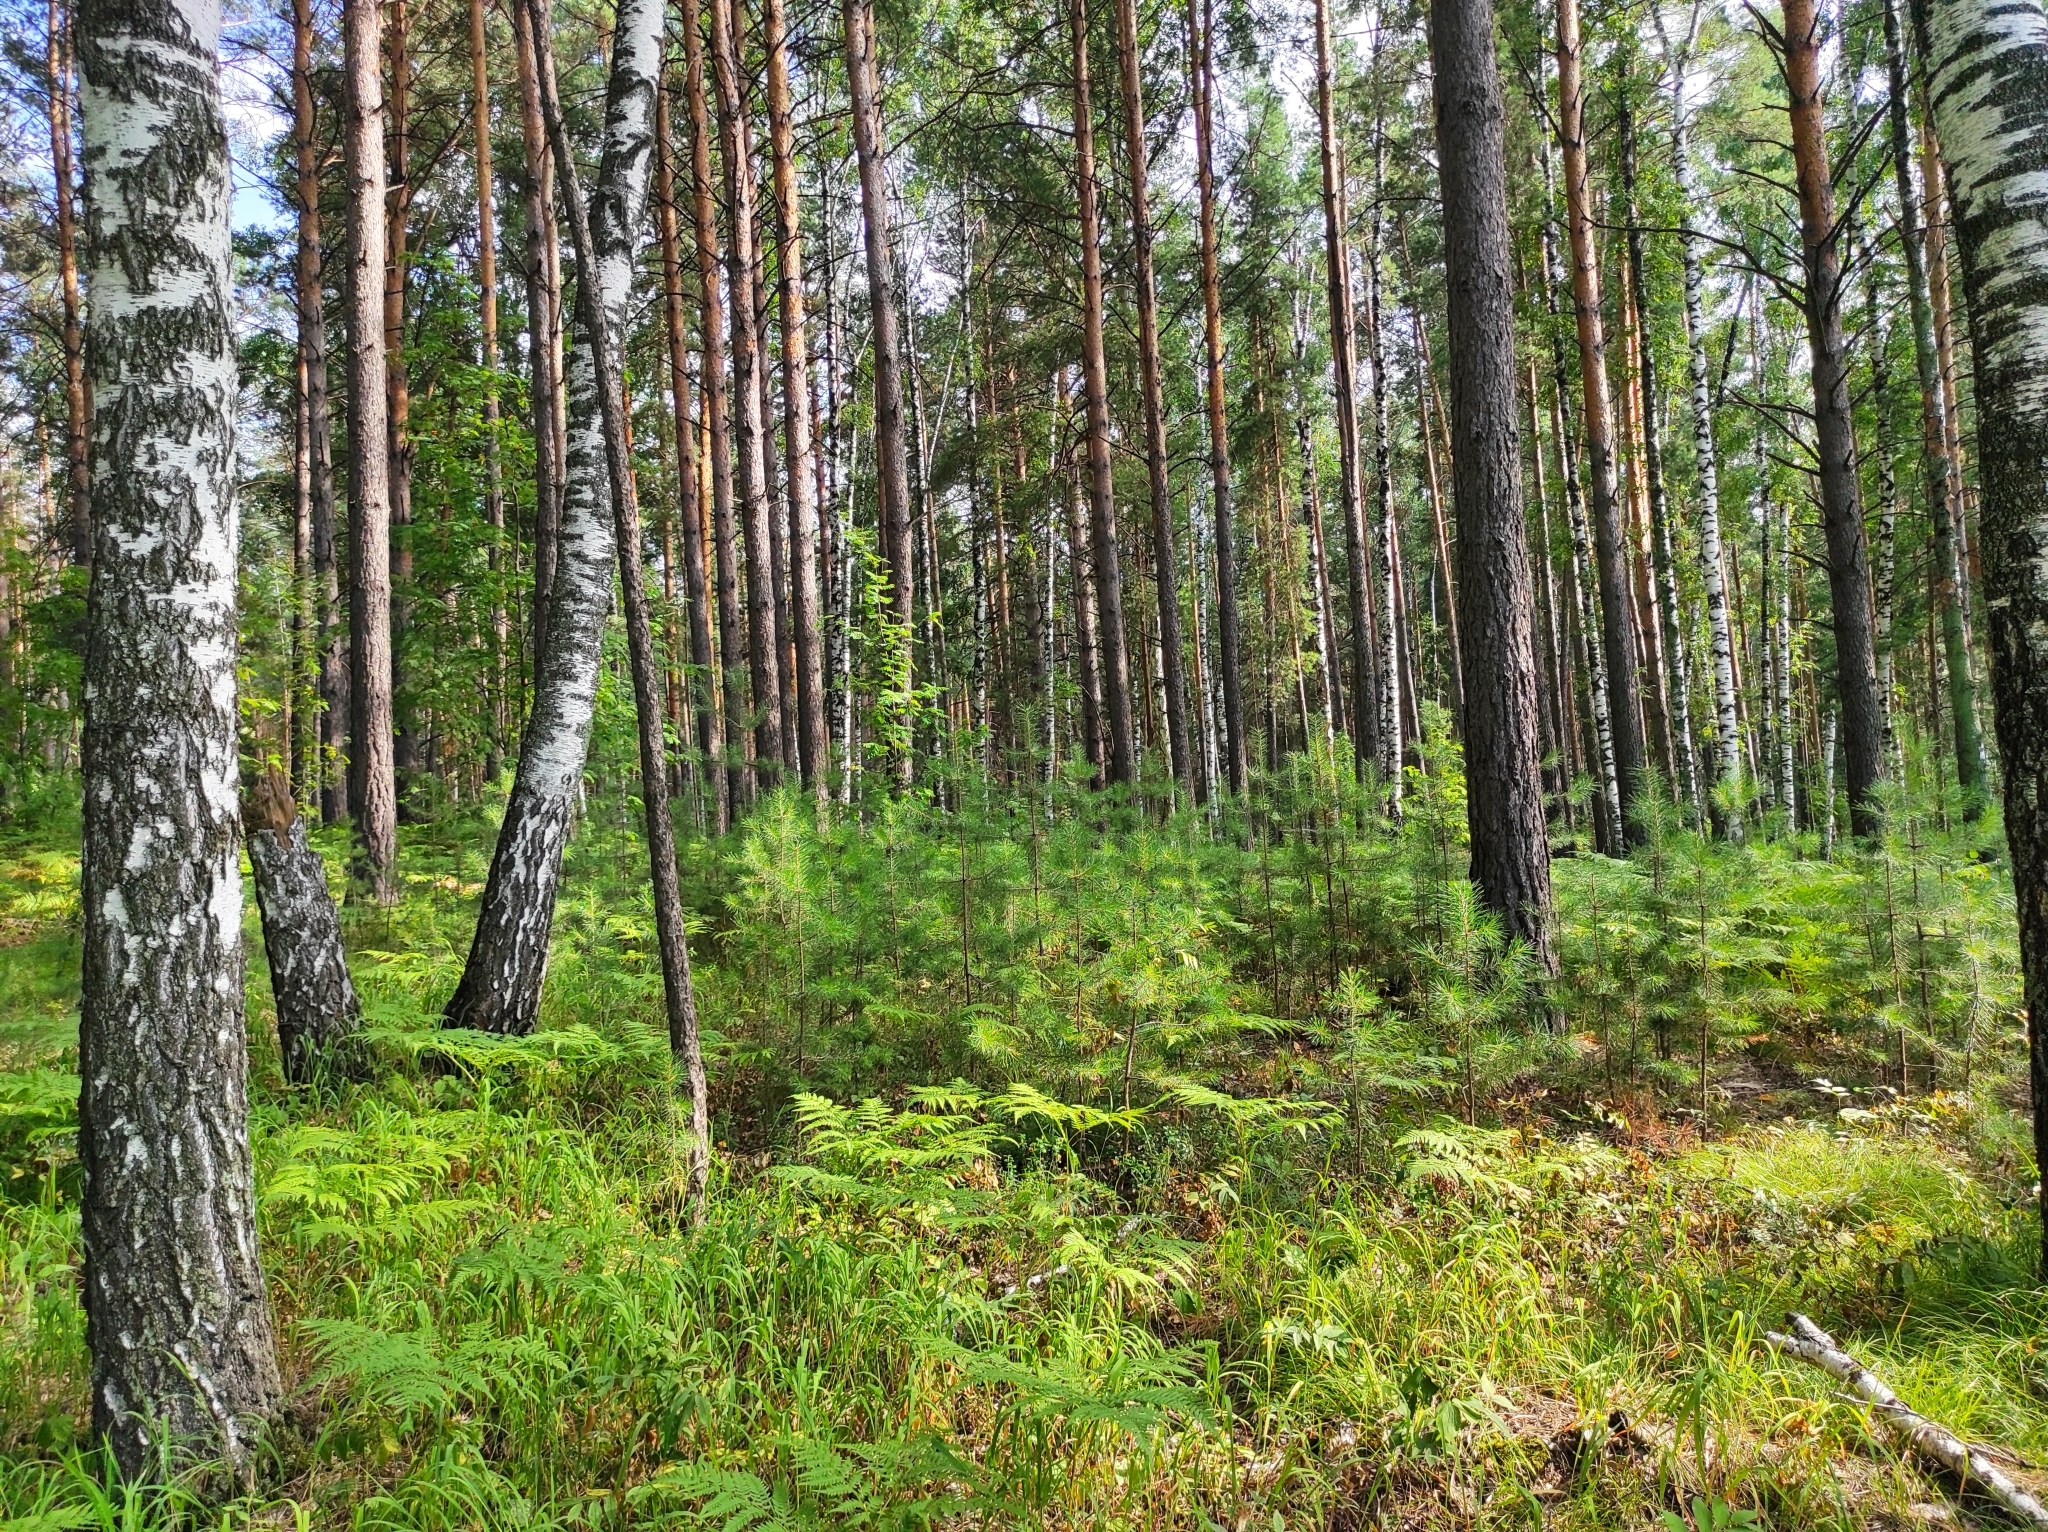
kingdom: Plantae
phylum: Tracheophyta
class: Pinopsida
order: Pinales
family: Pinaceae
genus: Pinus
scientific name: Pinus sylvestris
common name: Scots pine
